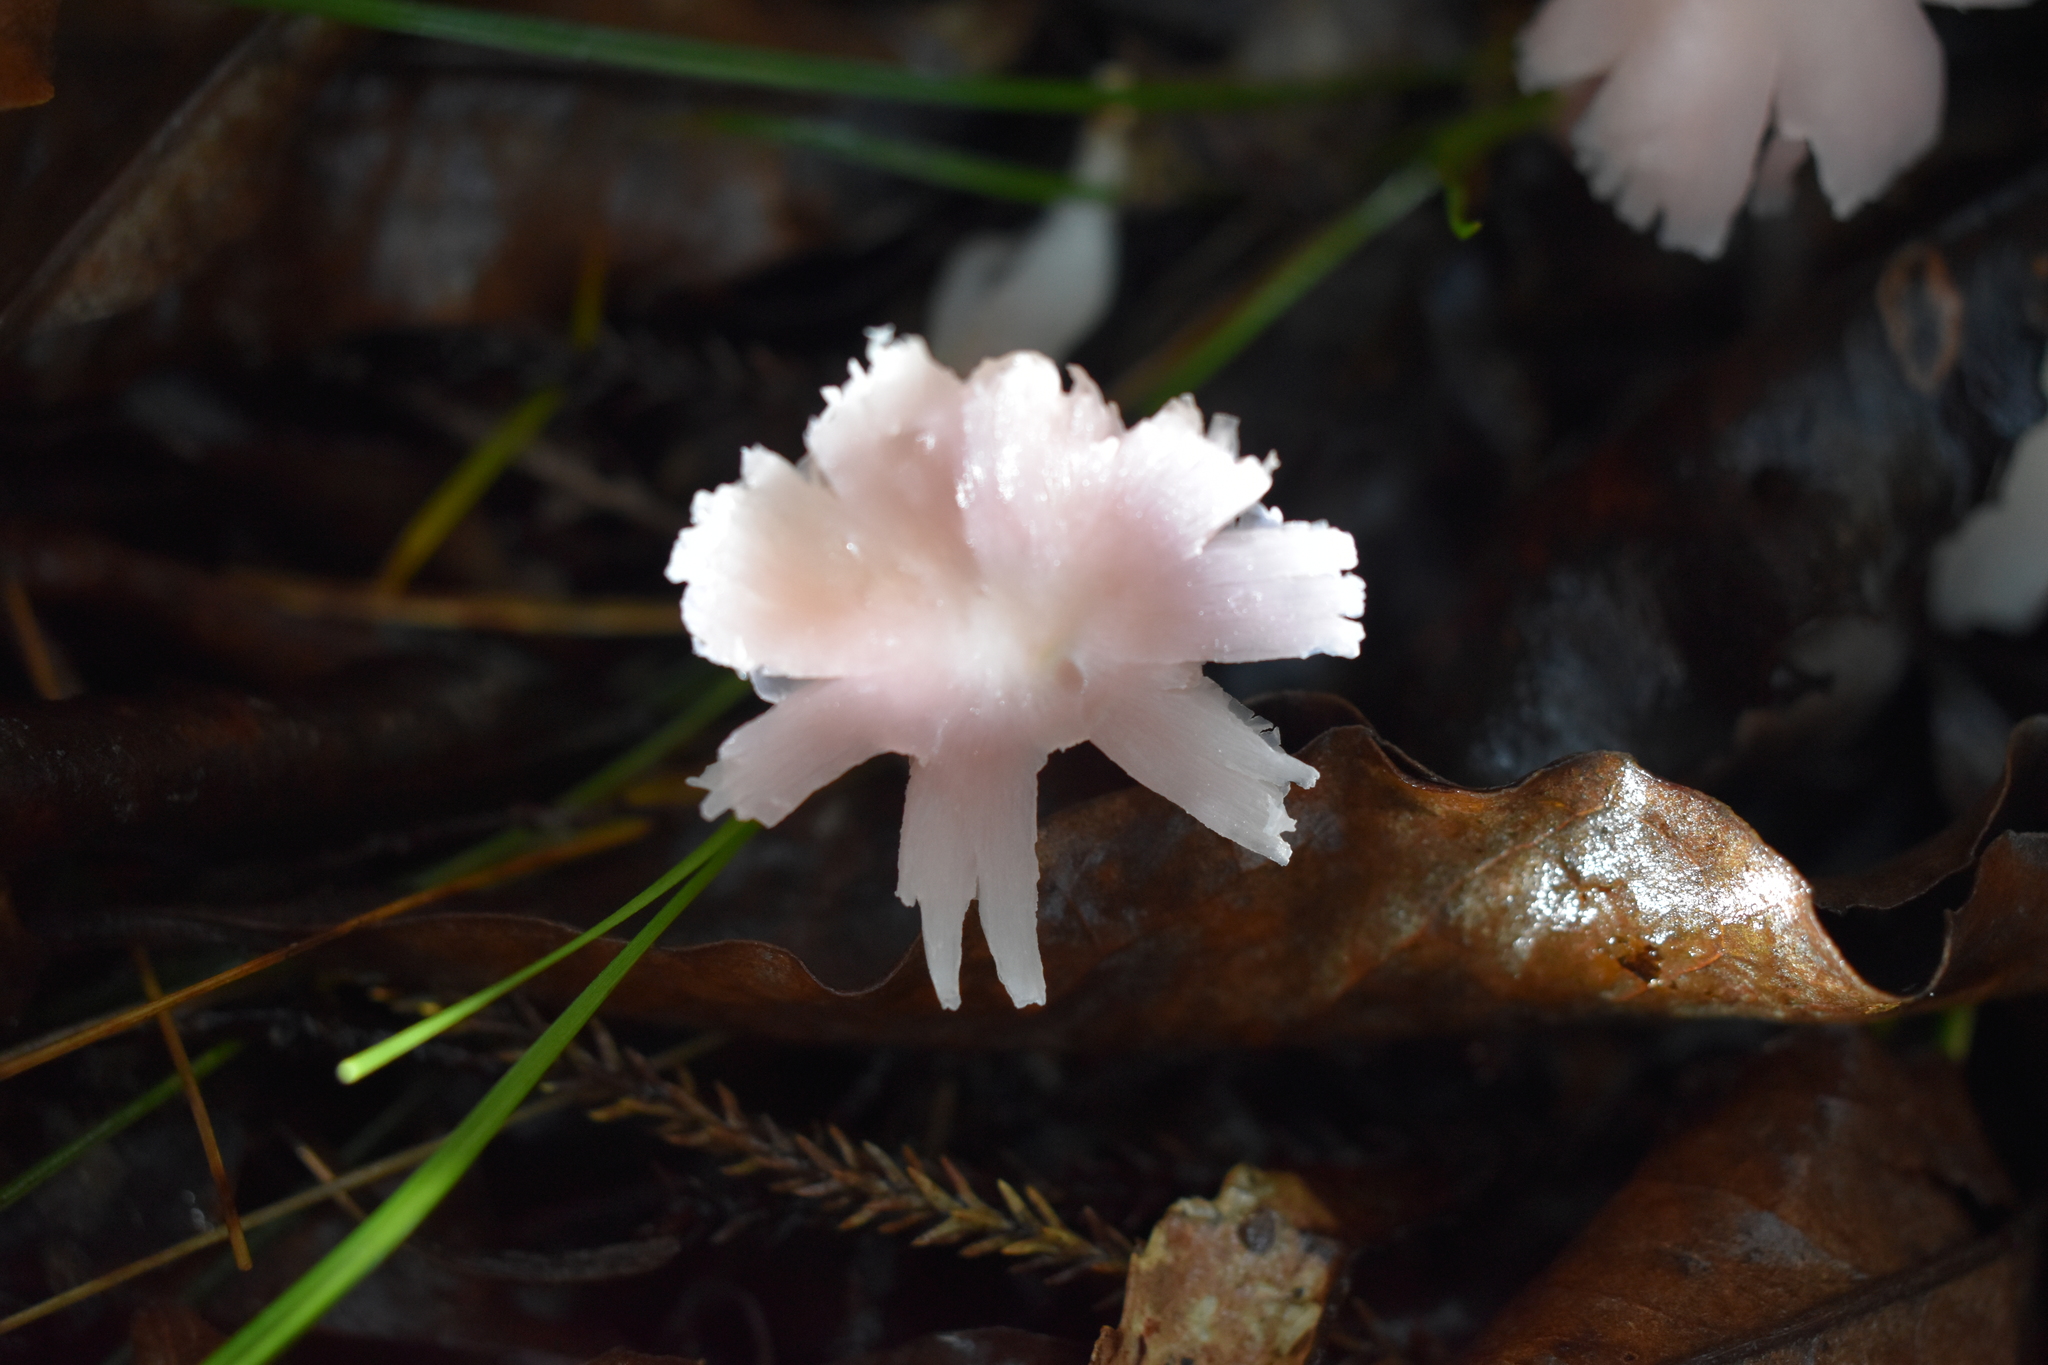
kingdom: Fungi
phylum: Basidiomycota
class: Agaricomycetes
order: Agaricales
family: Hygrophoraceae
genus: Humidicutis
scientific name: Humidicutis
